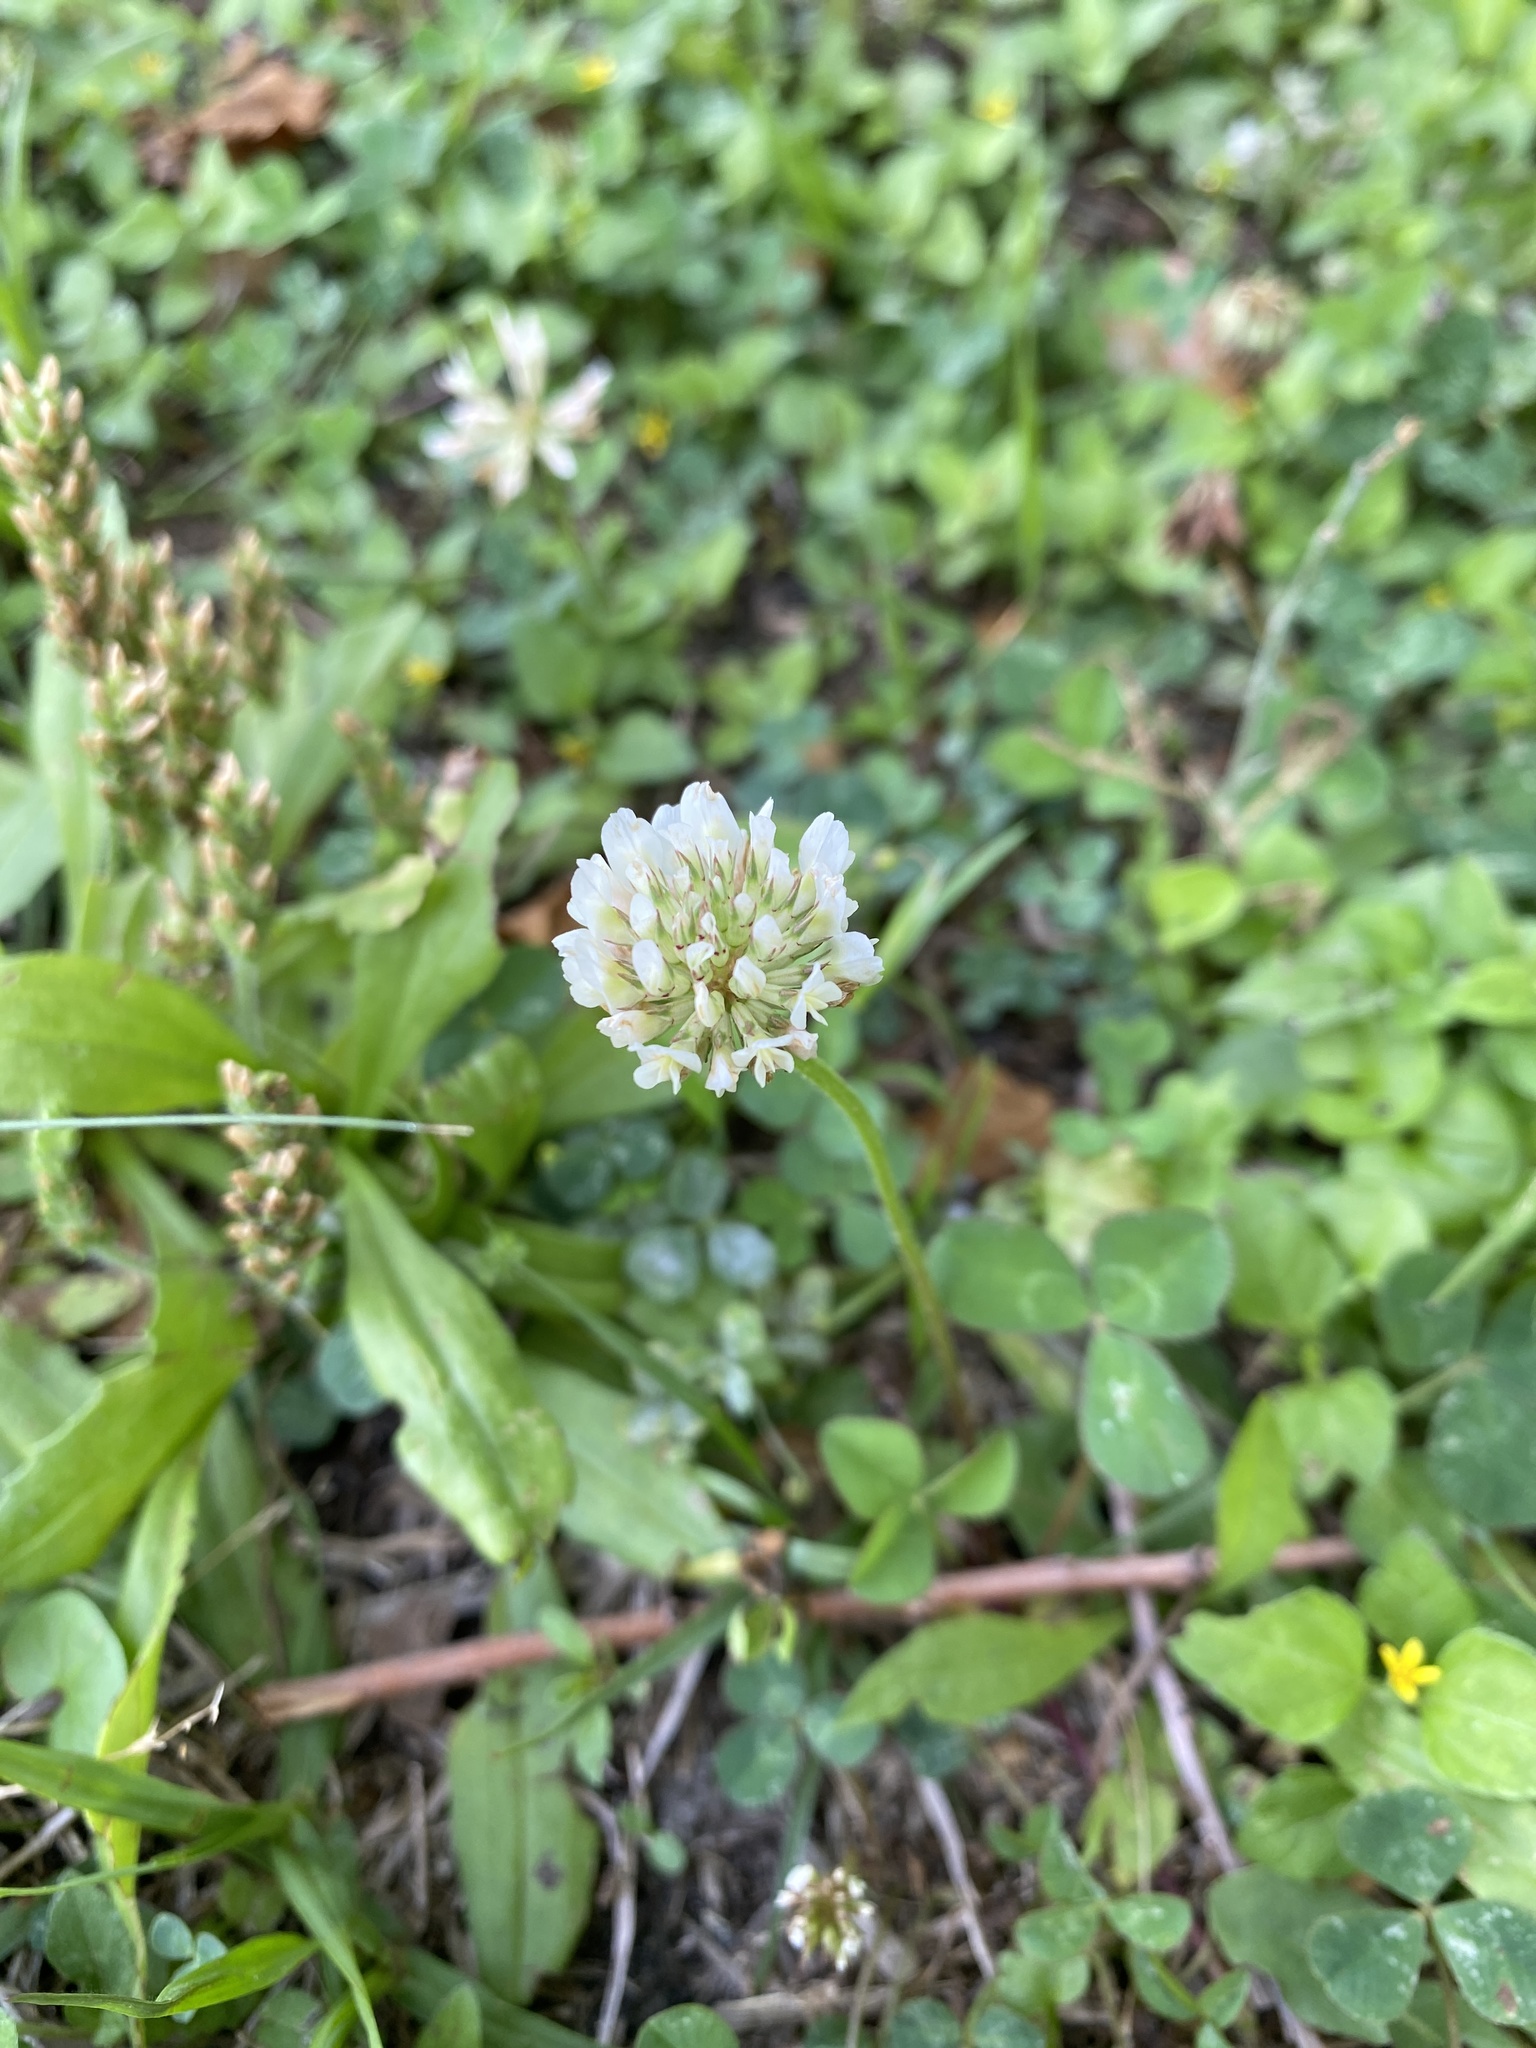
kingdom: Plantae
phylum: Tracheophyta
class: Magnoliopsida
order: Fabales
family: Fabaceae
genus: Trifolium
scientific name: Trifolium repens
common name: White clover
